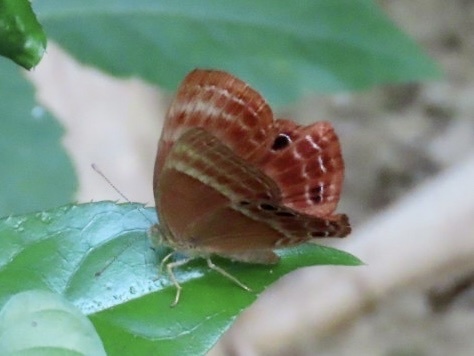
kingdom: Animalia
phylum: Arthropoda
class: Insecta
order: Lepidoptera
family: Lycaenidae
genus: Abisara
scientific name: Abisara echeria
